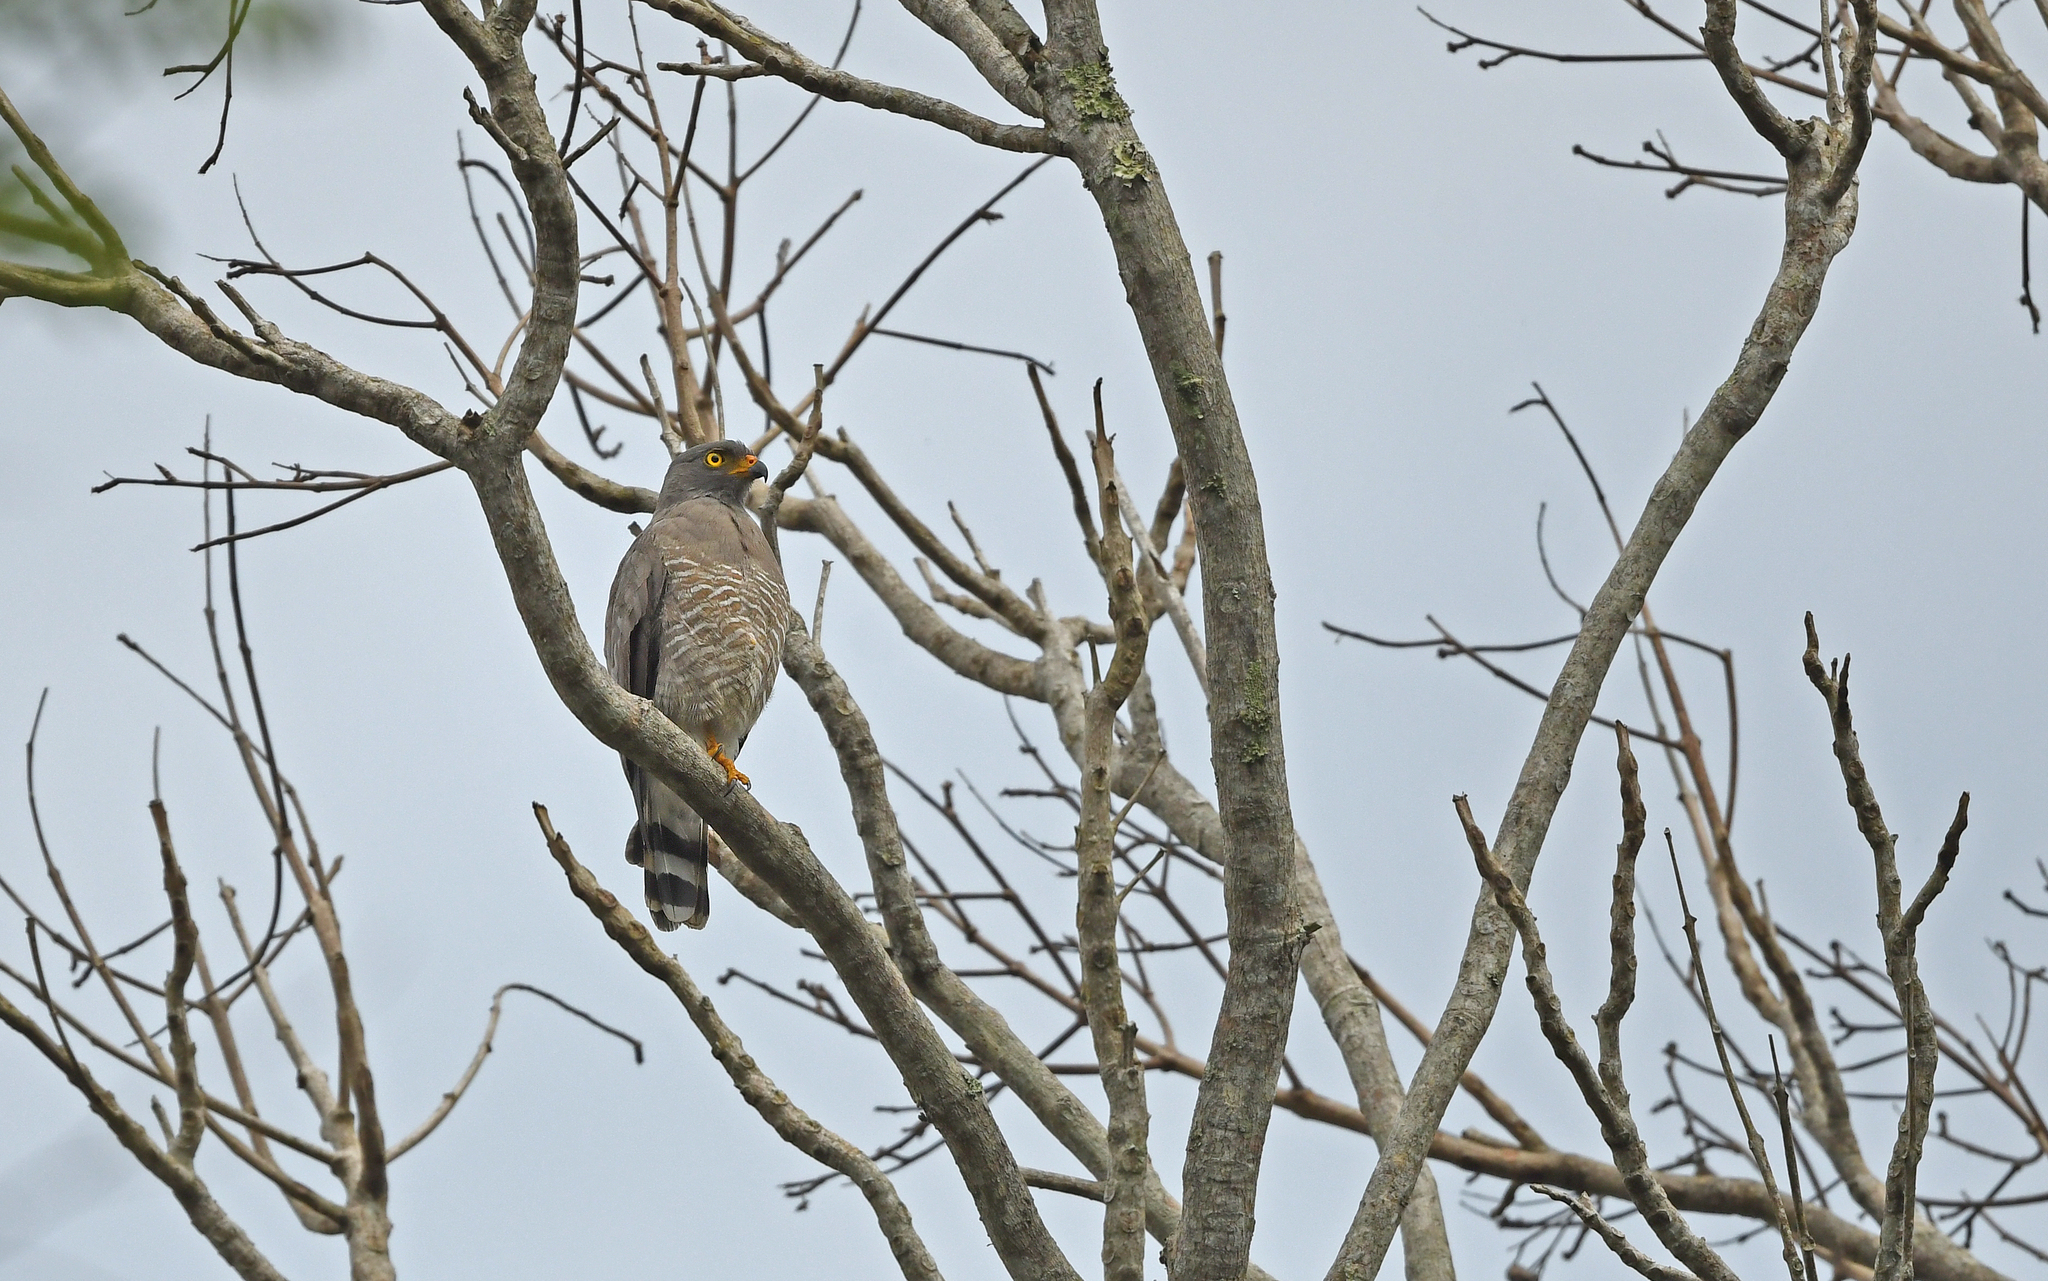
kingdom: Animalia
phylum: Chordata
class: Aves
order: Accipitriformes
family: Accipitridae
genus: Rupornis
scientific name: Rupornis magnirostris
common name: Roadside hawk
